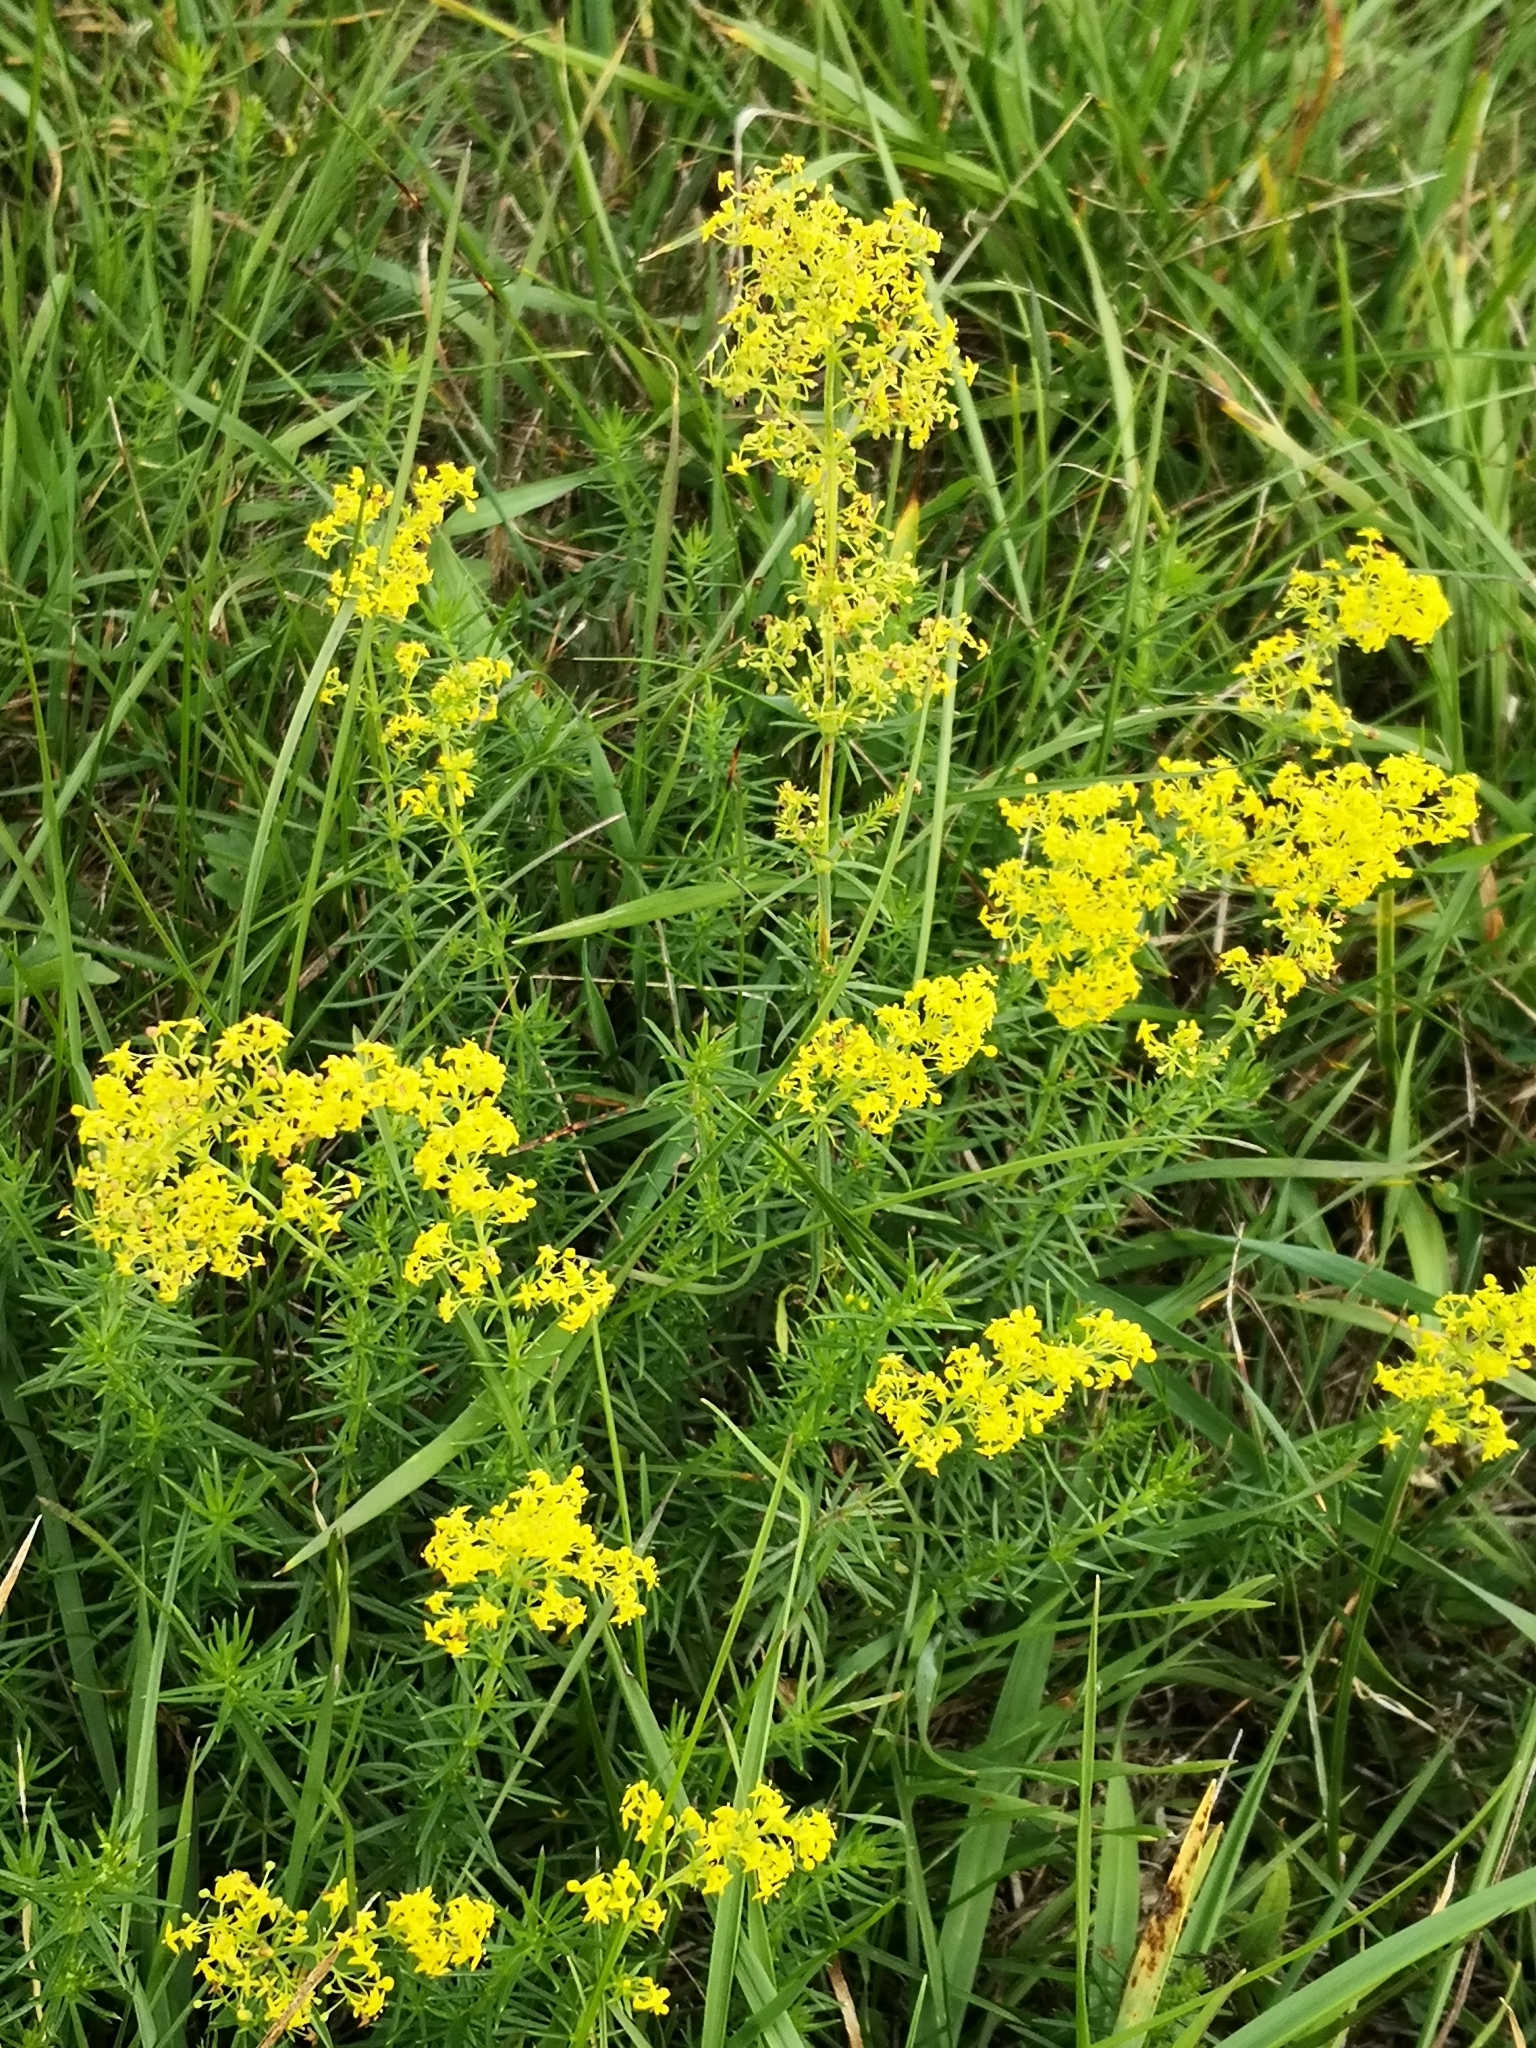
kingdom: Plantae
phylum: Tracheophyta
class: Magnoliopsida
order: Gentianales
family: Rubiaceae
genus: Galium
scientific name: Galium verum
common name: Lady's bedstraw
